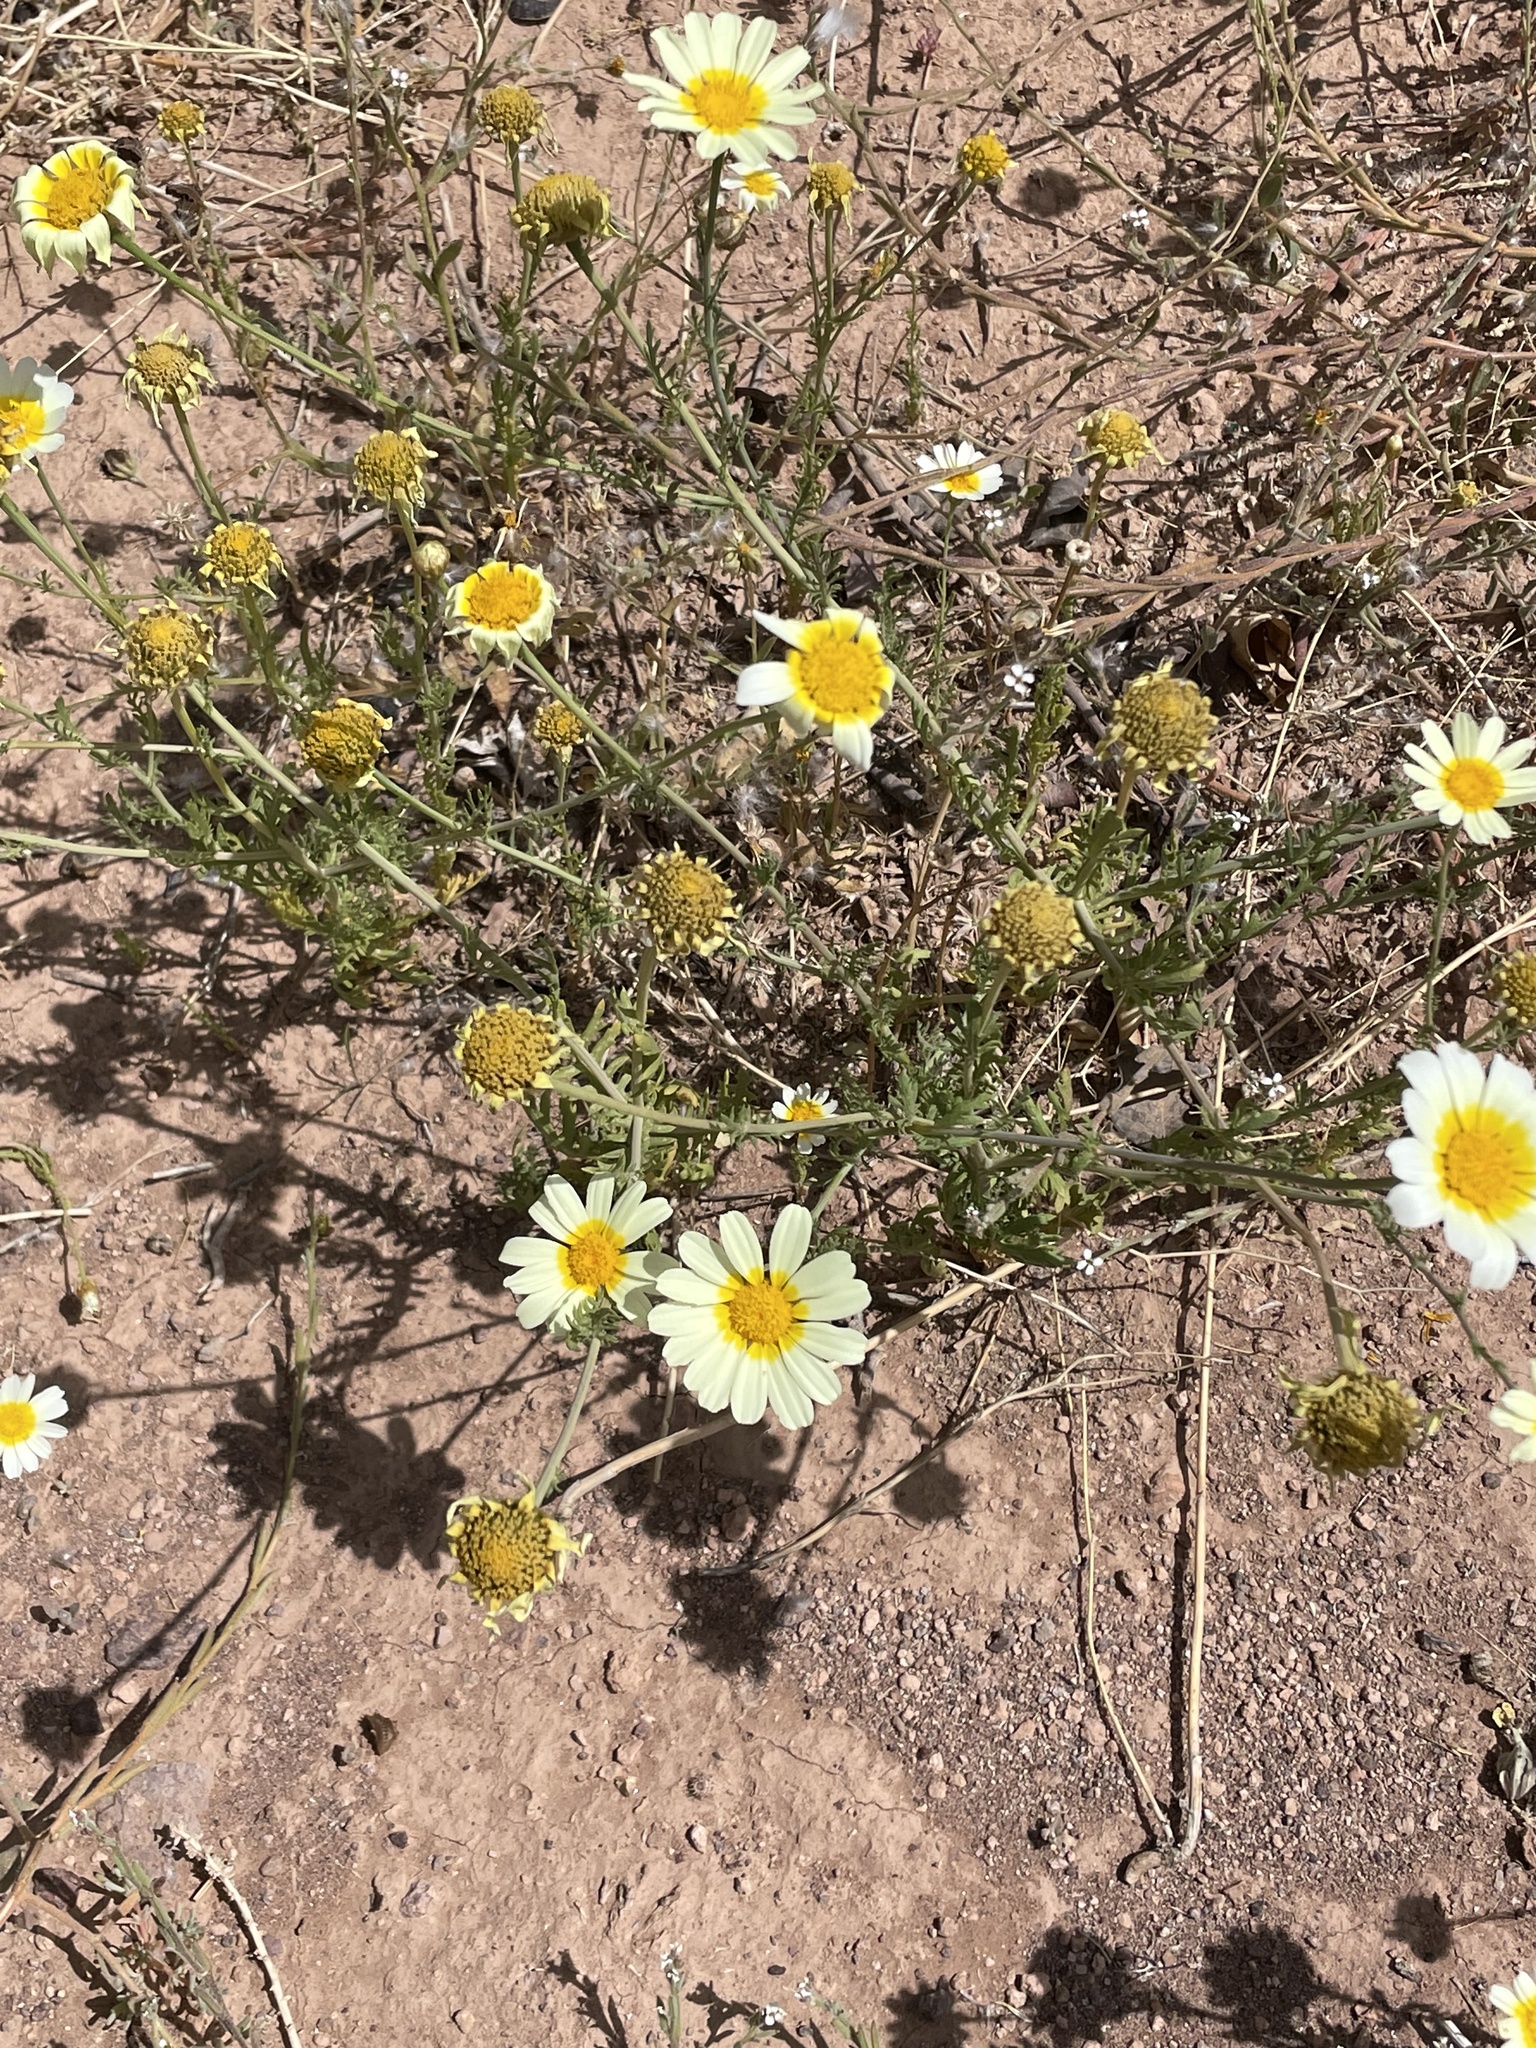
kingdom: Plantae
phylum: Tracheophyta
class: Magnoliopsida
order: Asterales
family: Asteraceae
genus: Glebionis
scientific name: Glebionis coronaria
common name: Crowndaisy
